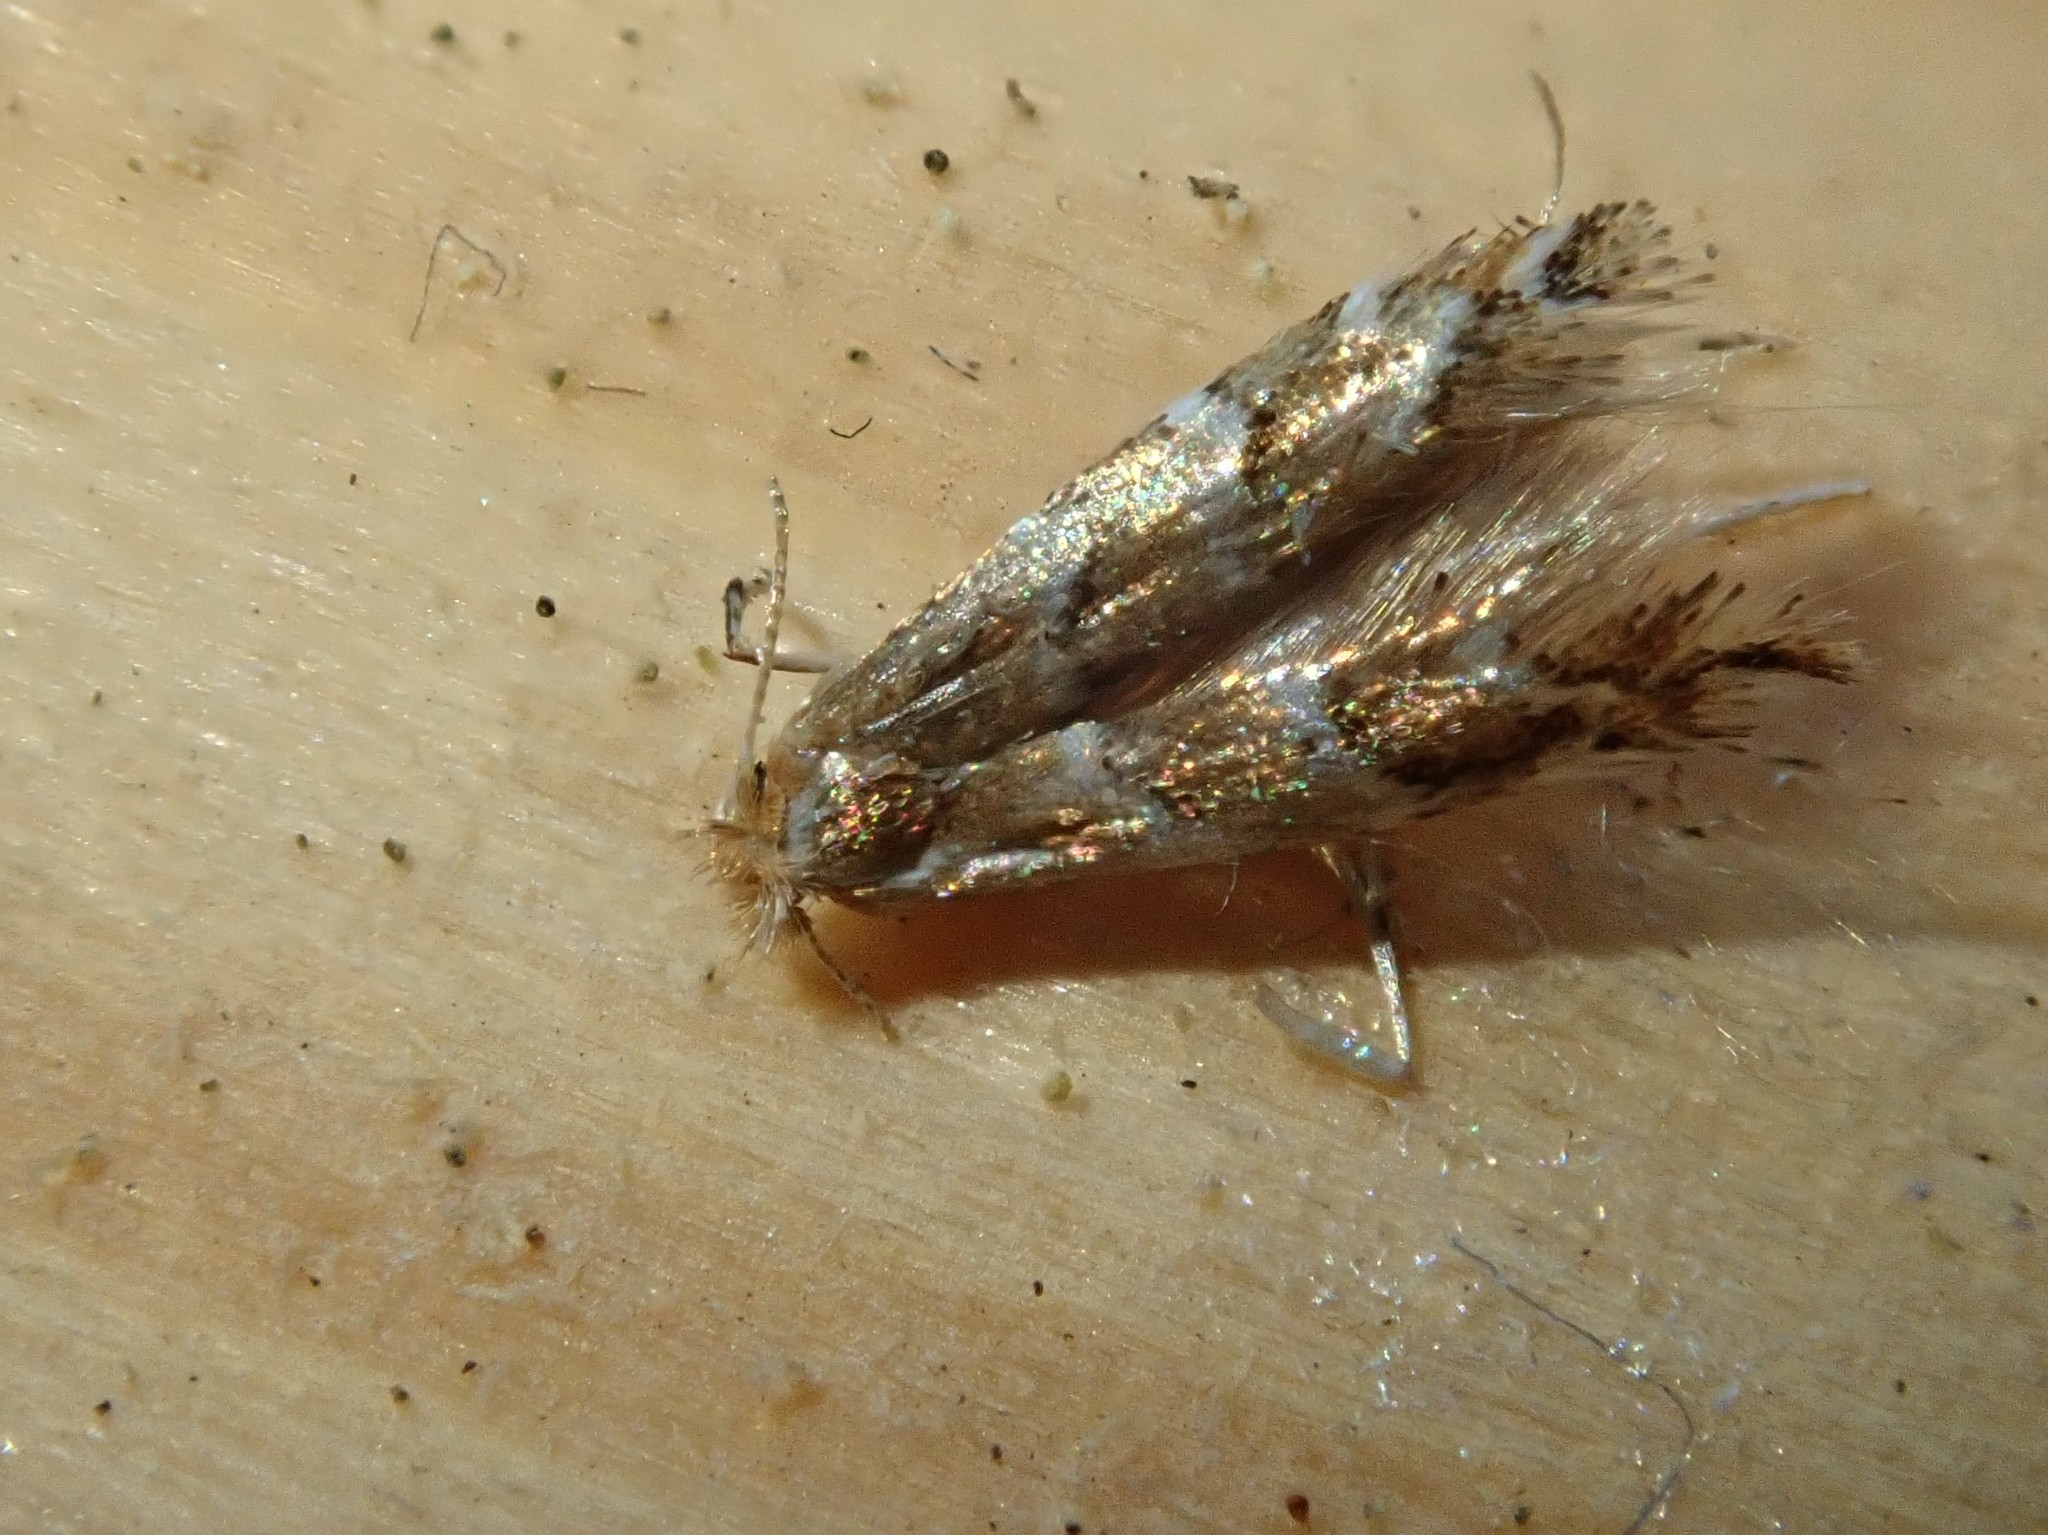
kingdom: Animalia
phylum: Arthropoda
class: Insecta
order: Lepidoptera
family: Gracillariidae
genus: Cameraria
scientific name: Cameraria ohridella
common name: Horse-chestnut leaf-miner
